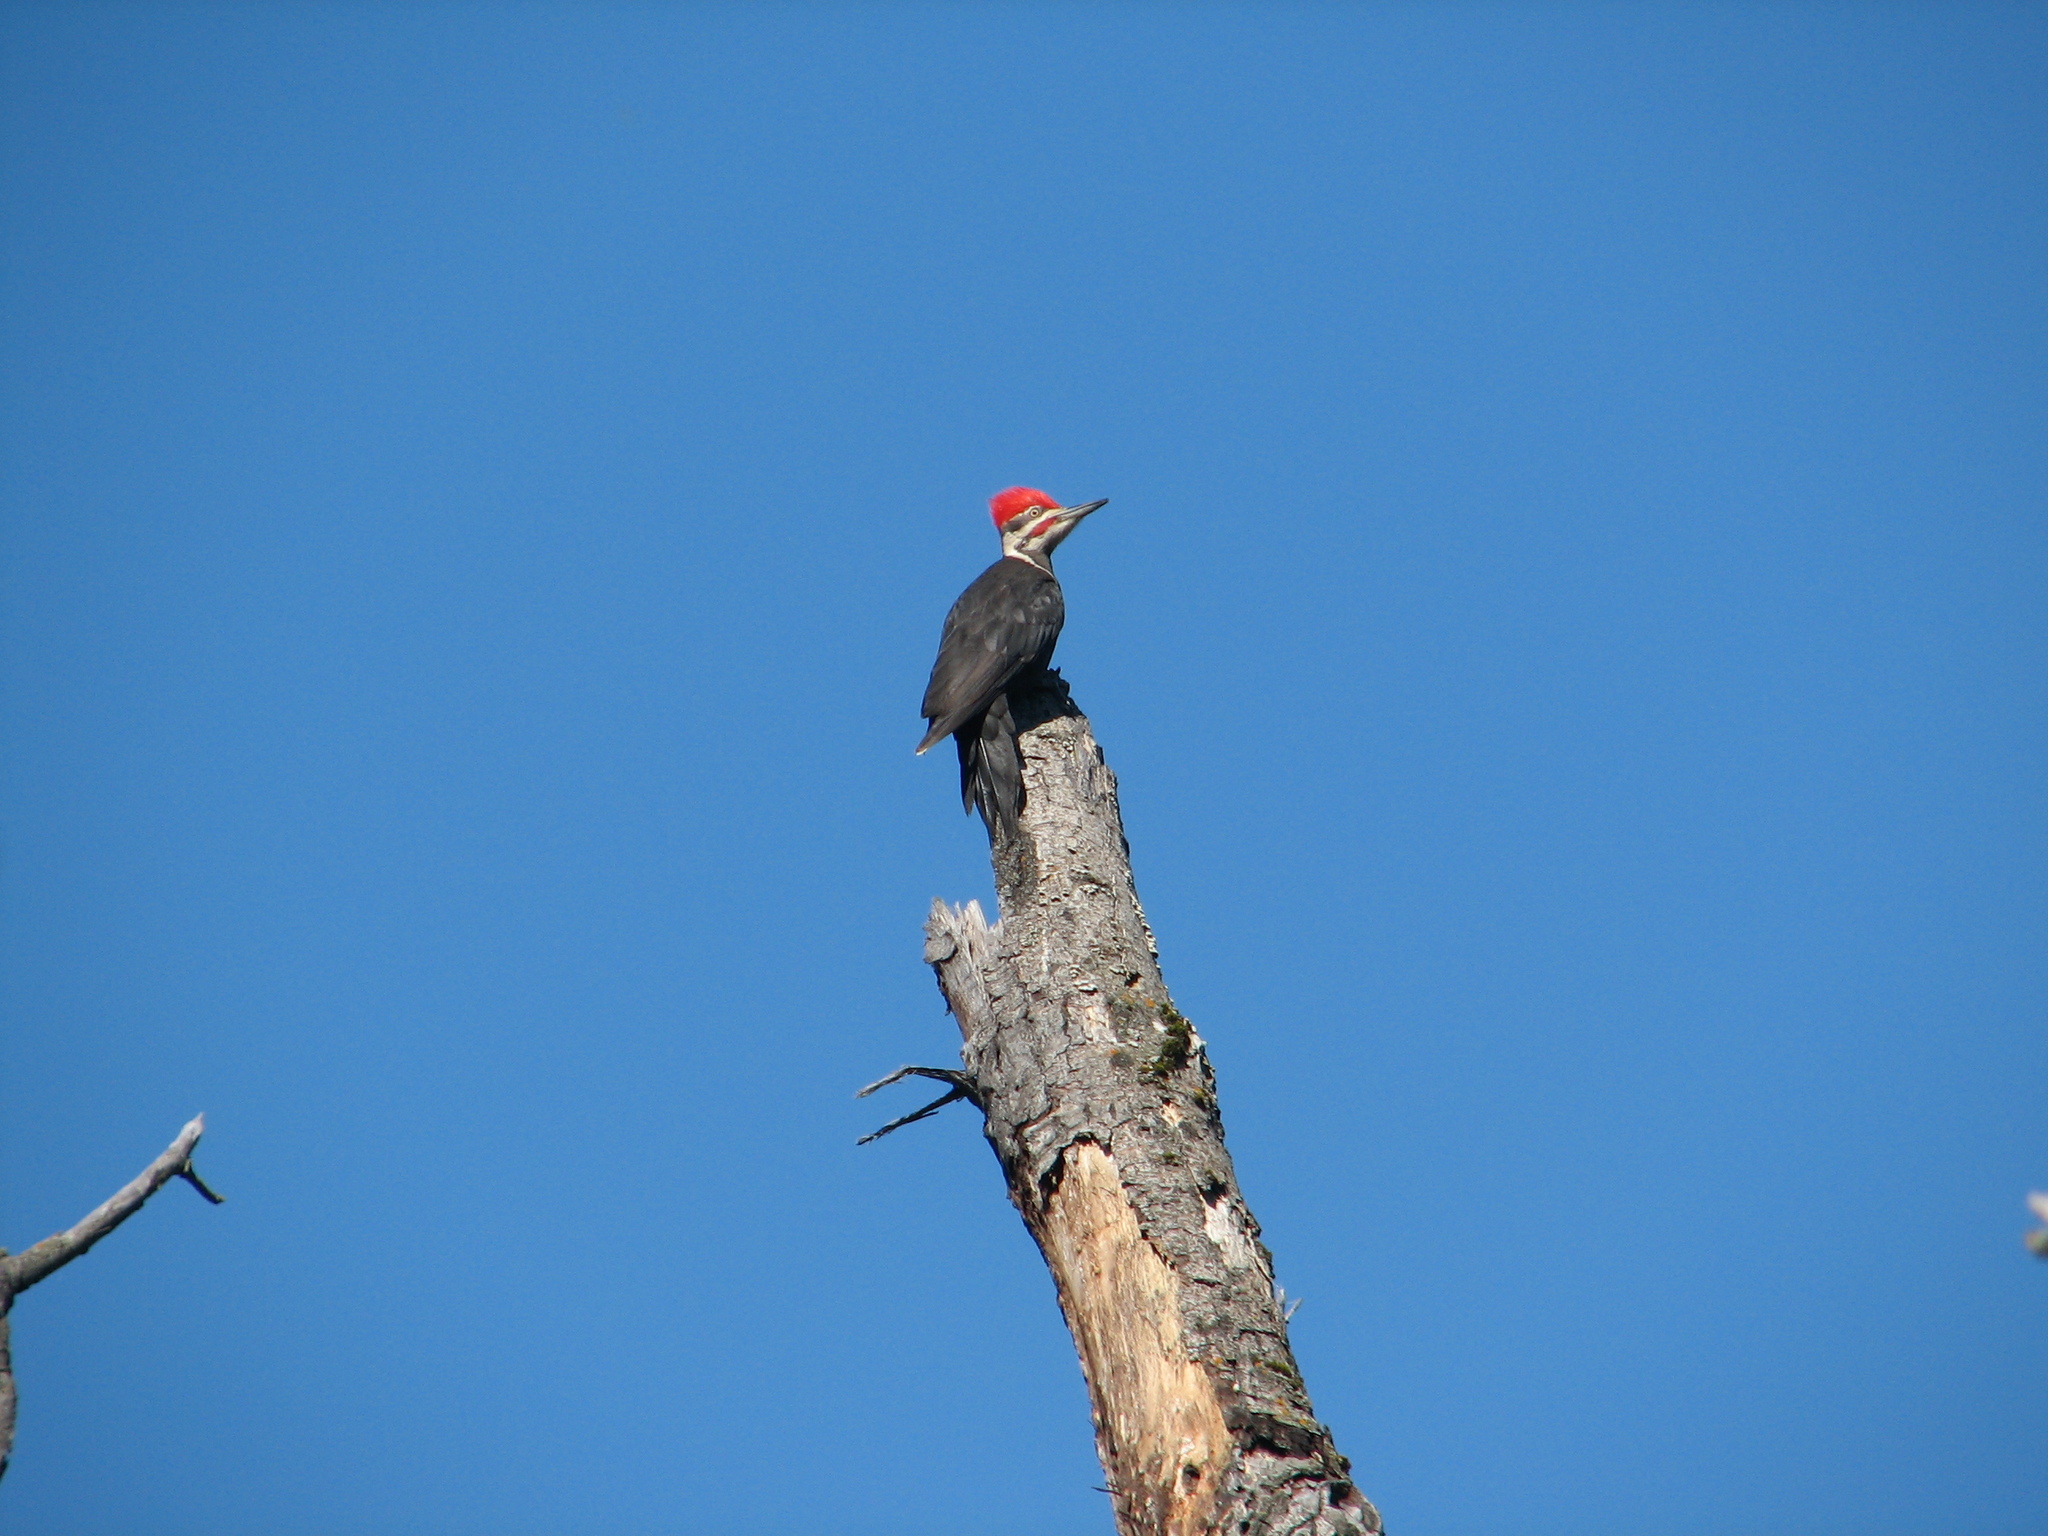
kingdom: Animalia
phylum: Chordata
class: Aves
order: Piciformes
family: Picidae
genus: Dryocopus
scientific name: Dryocopus pileatus
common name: Pileated woodpecker
